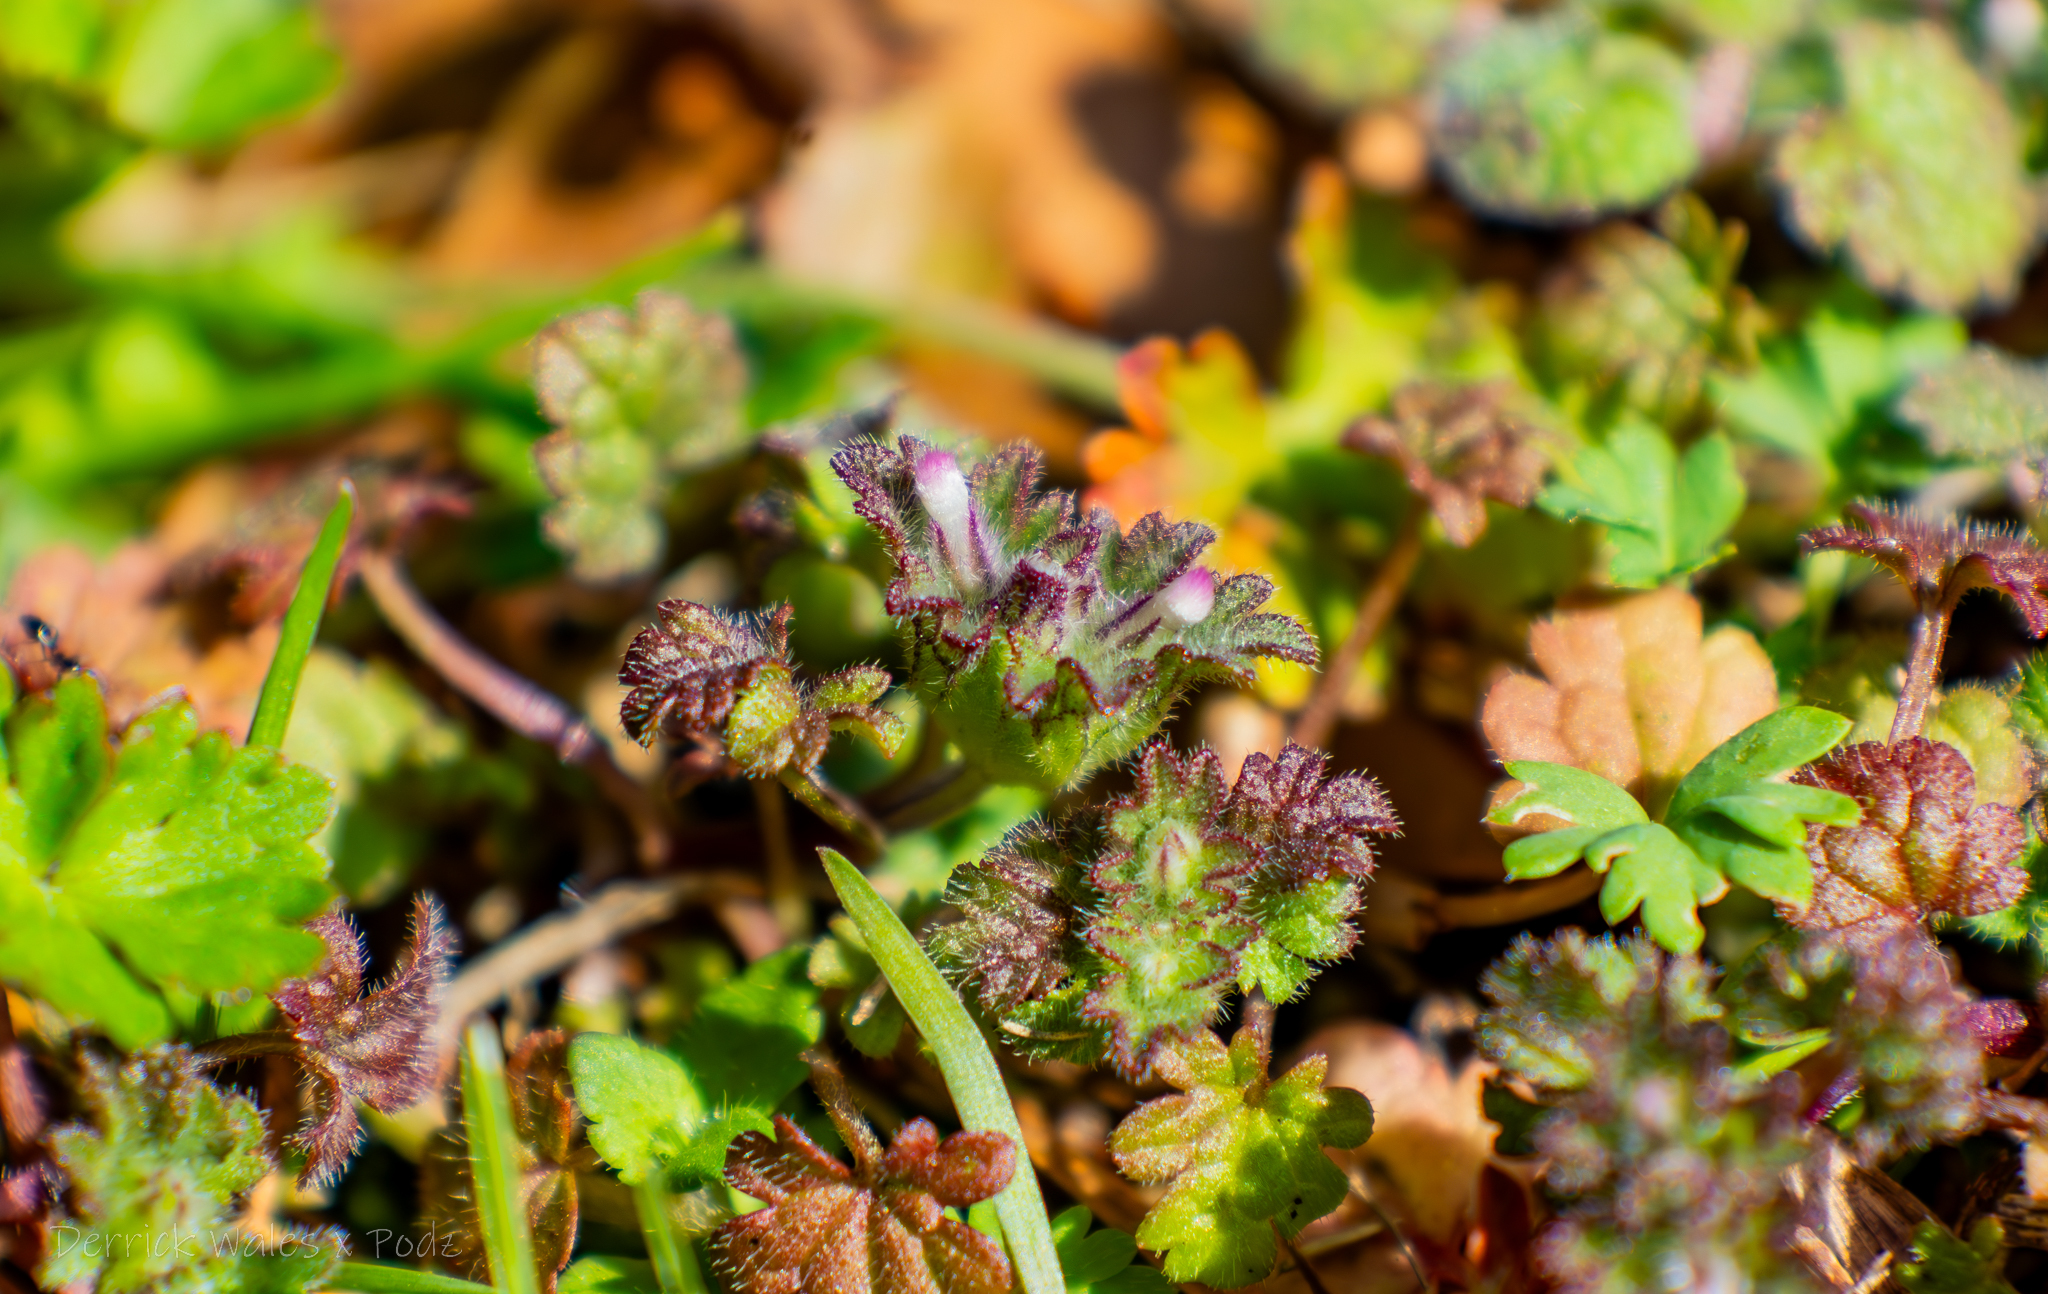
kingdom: Plantae
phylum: Tracheophyta
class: Magnoliopsida
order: Lamiales
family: Lamiaceae
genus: Lamium
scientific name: Lamium amplexicaule
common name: Henbit dead-nettle
